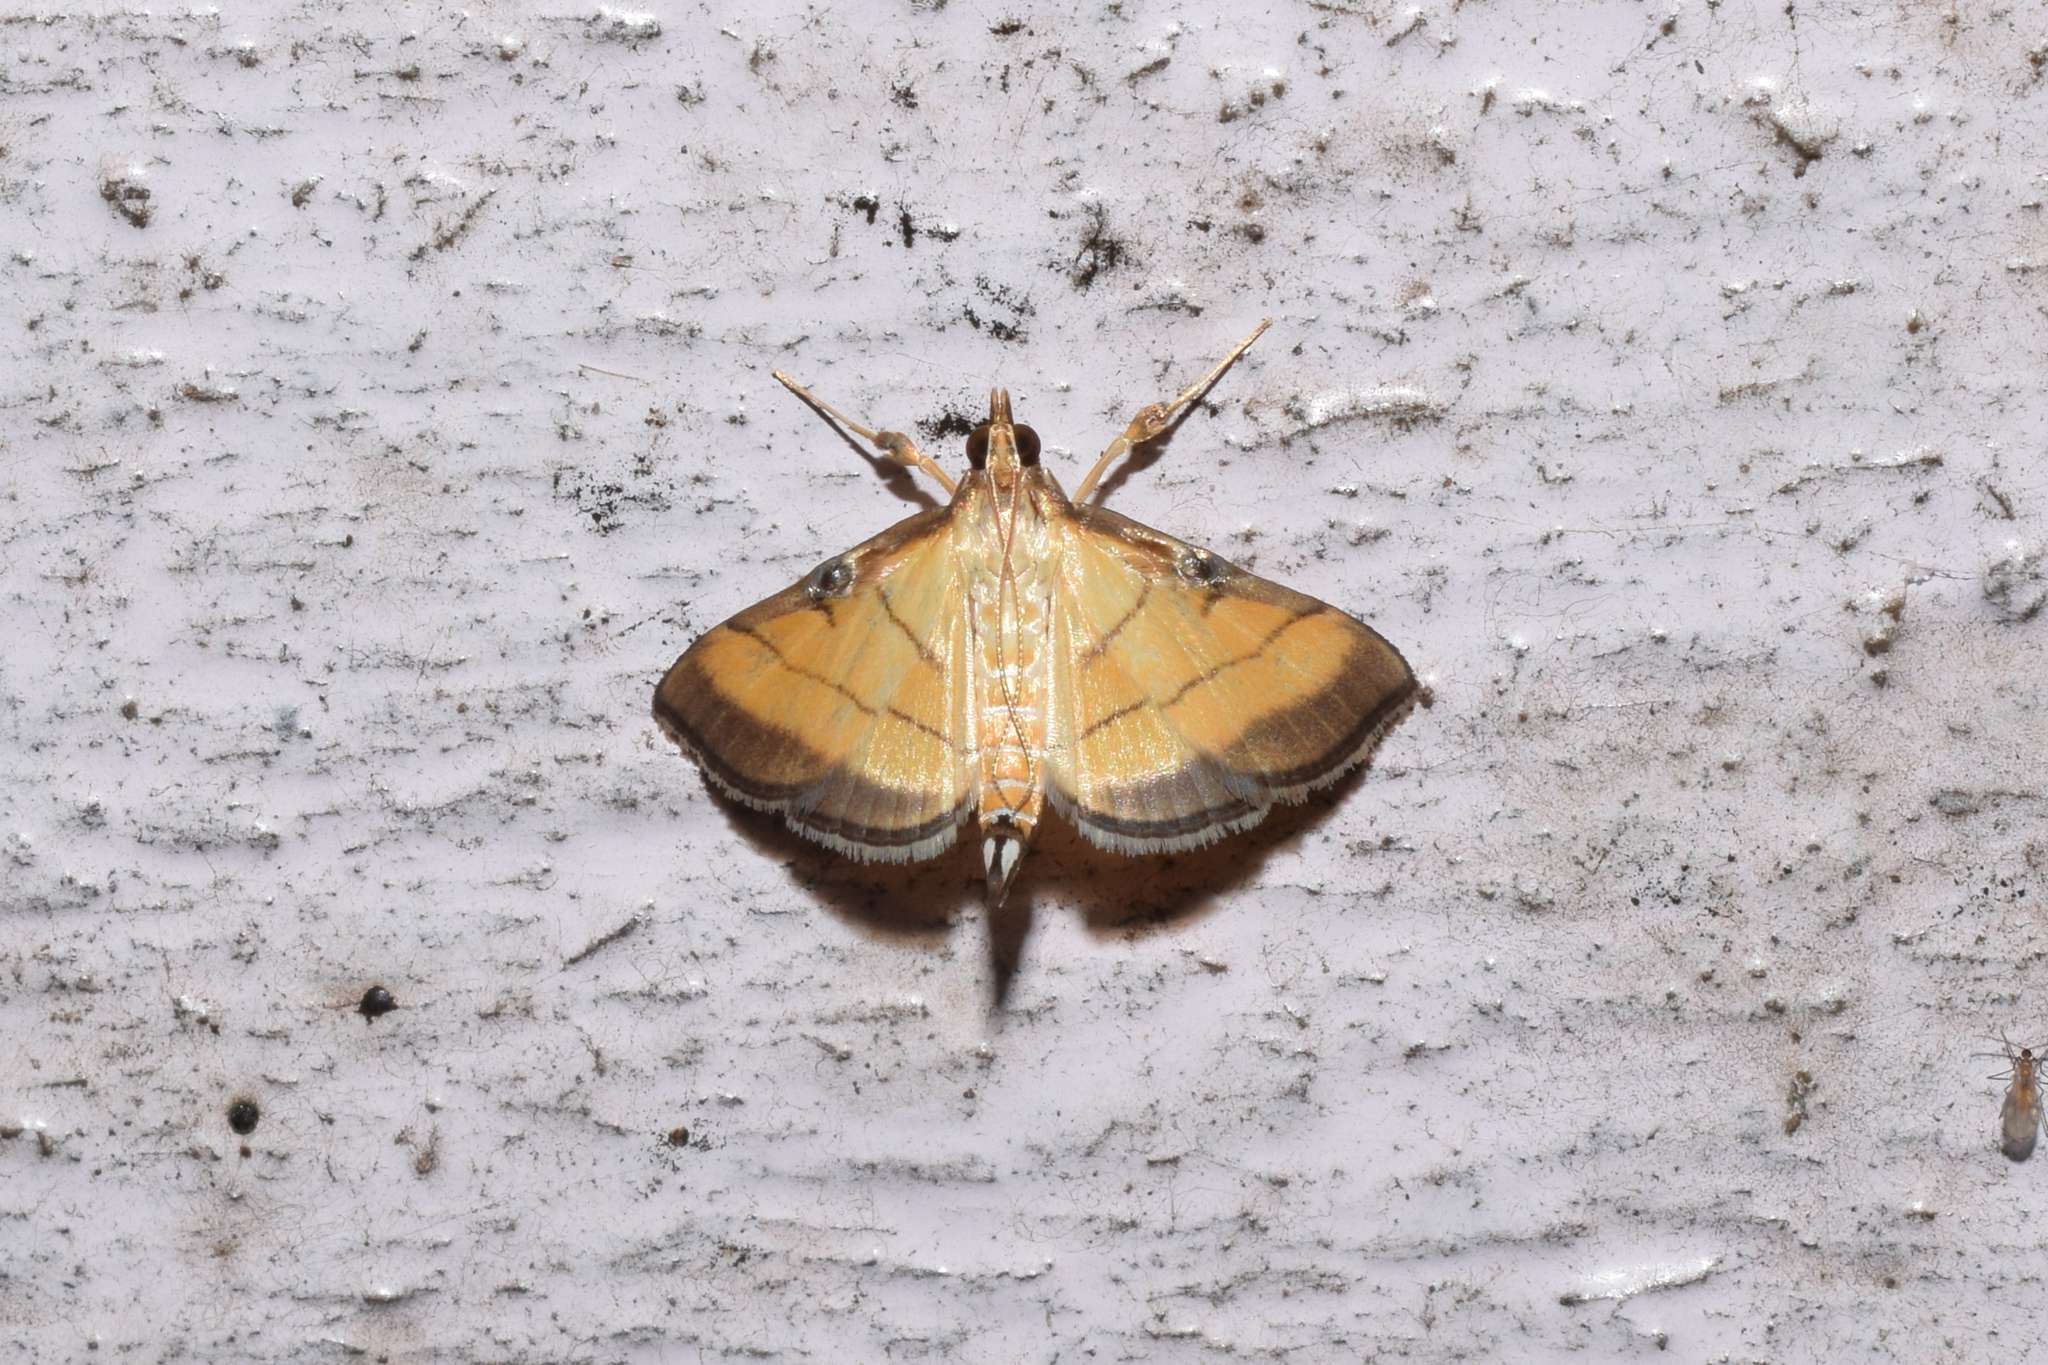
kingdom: Animalia
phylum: Arthropoda
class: Insecta
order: Lepidoptera
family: Crambidae
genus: Cnaphalocrocis
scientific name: Cnaphalocrocis medinalis
